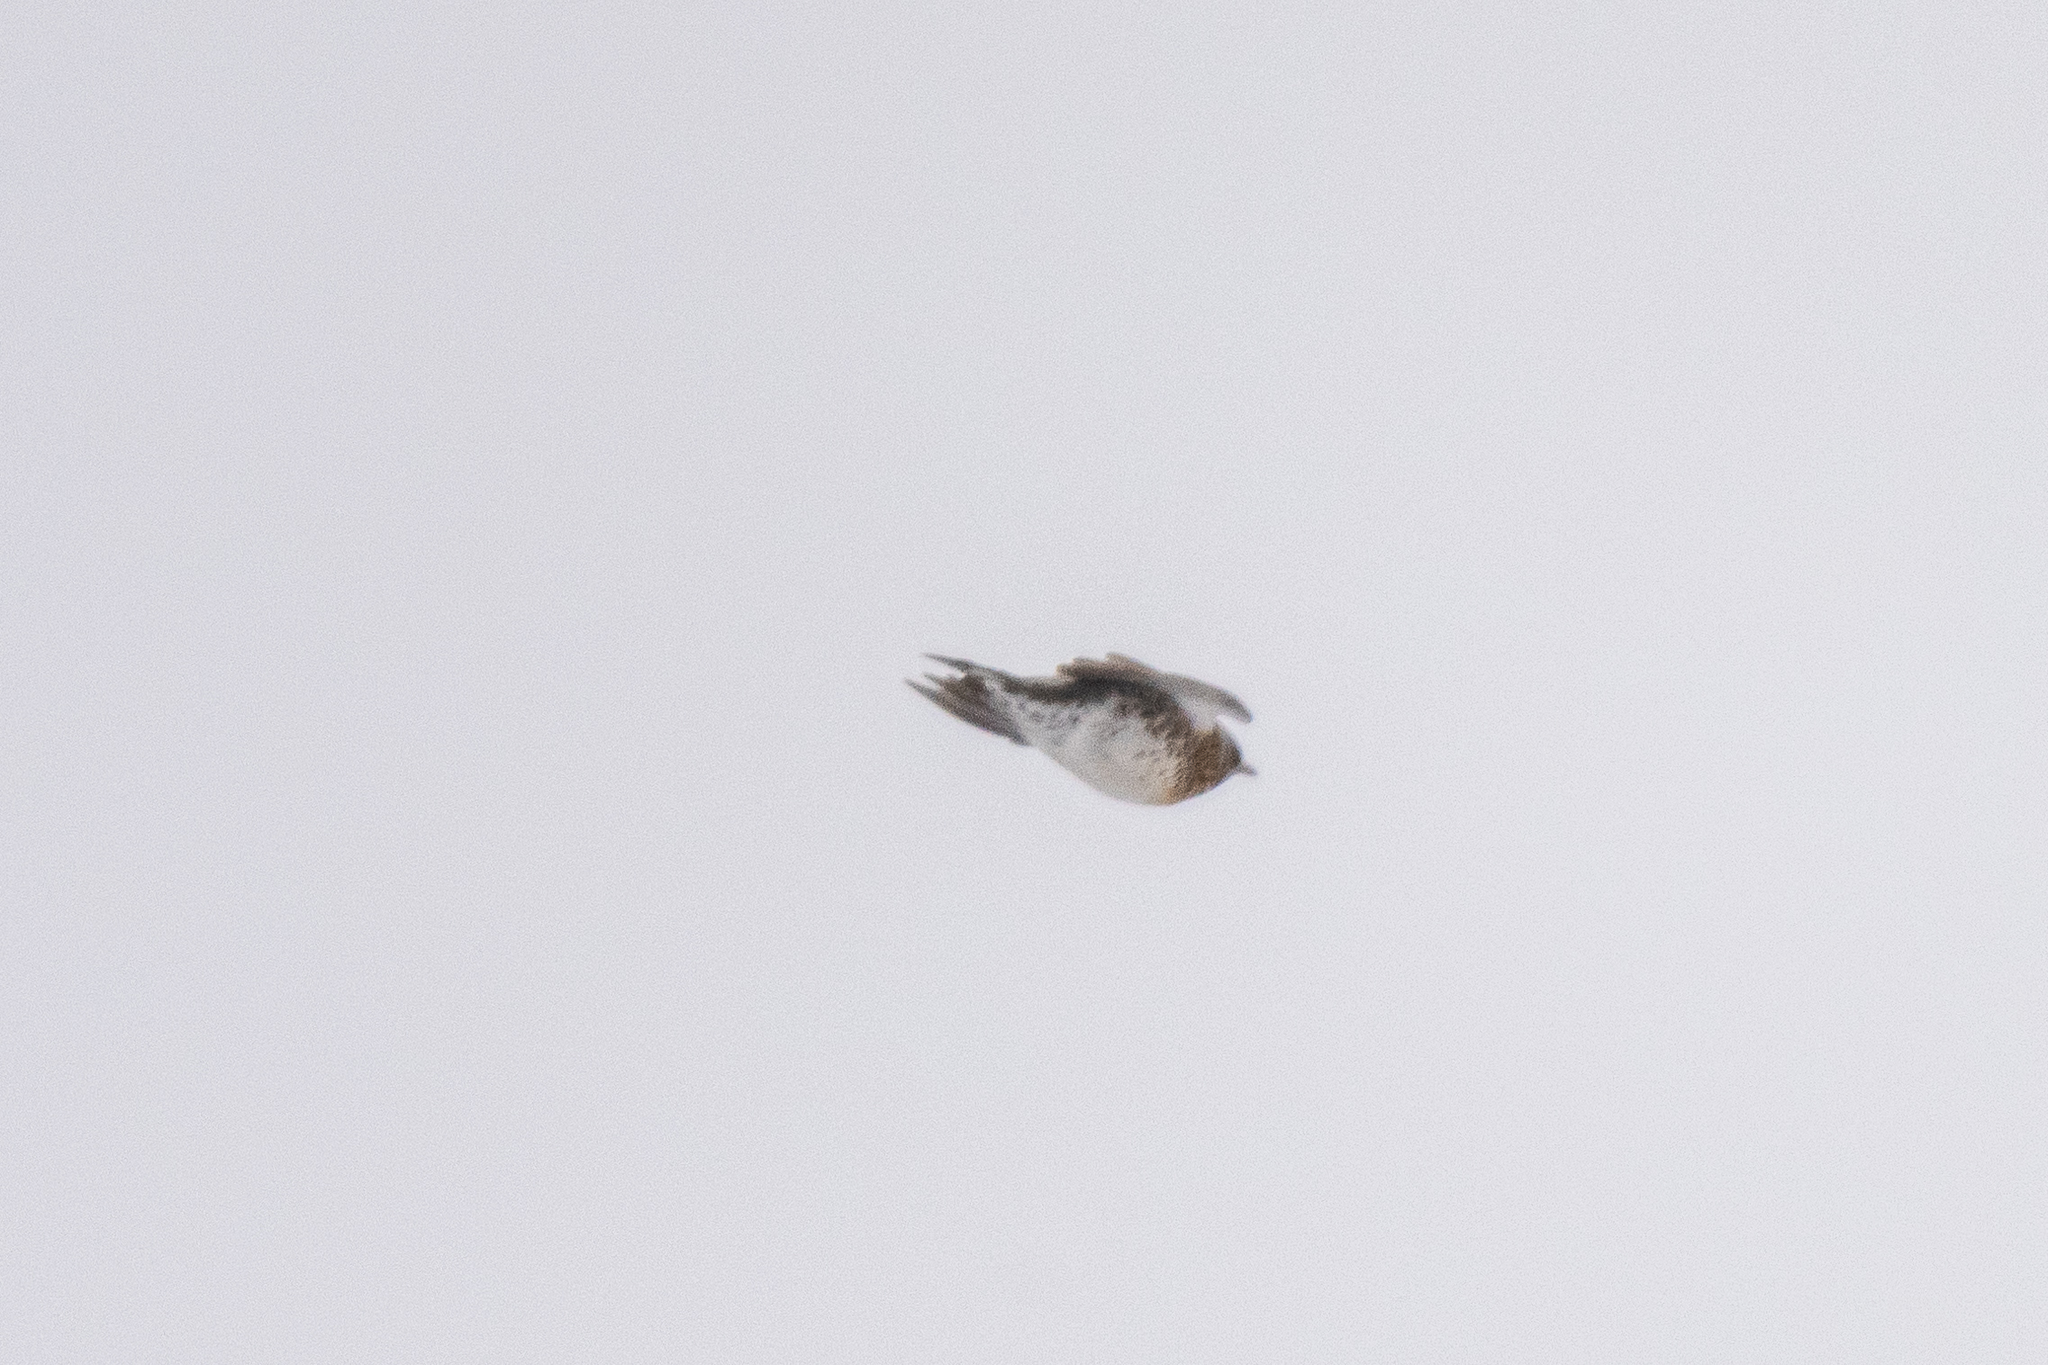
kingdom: Animalia
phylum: Chordata
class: Aves
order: Passeriformes
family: Turdidae
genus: Turdus
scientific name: Turdus pilaris
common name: Fieldfare
